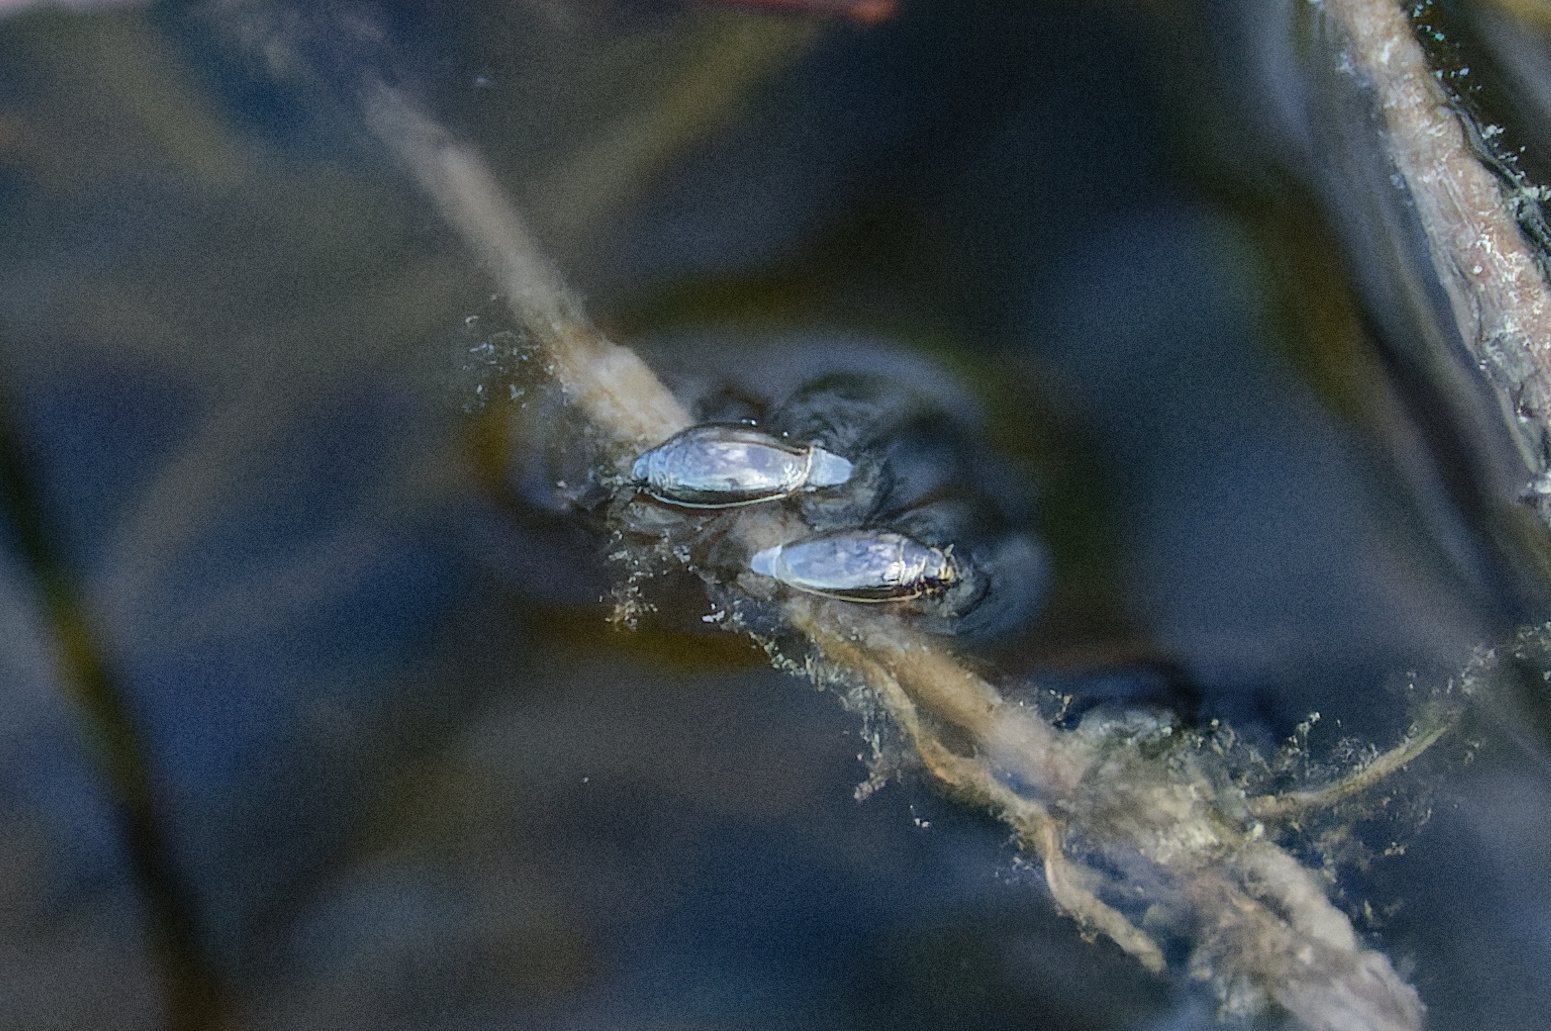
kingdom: Animalia
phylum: Arthropoda
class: Insecta
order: Coleoptera
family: Gyrinidae
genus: Gyrinus
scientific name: Gyrinus
